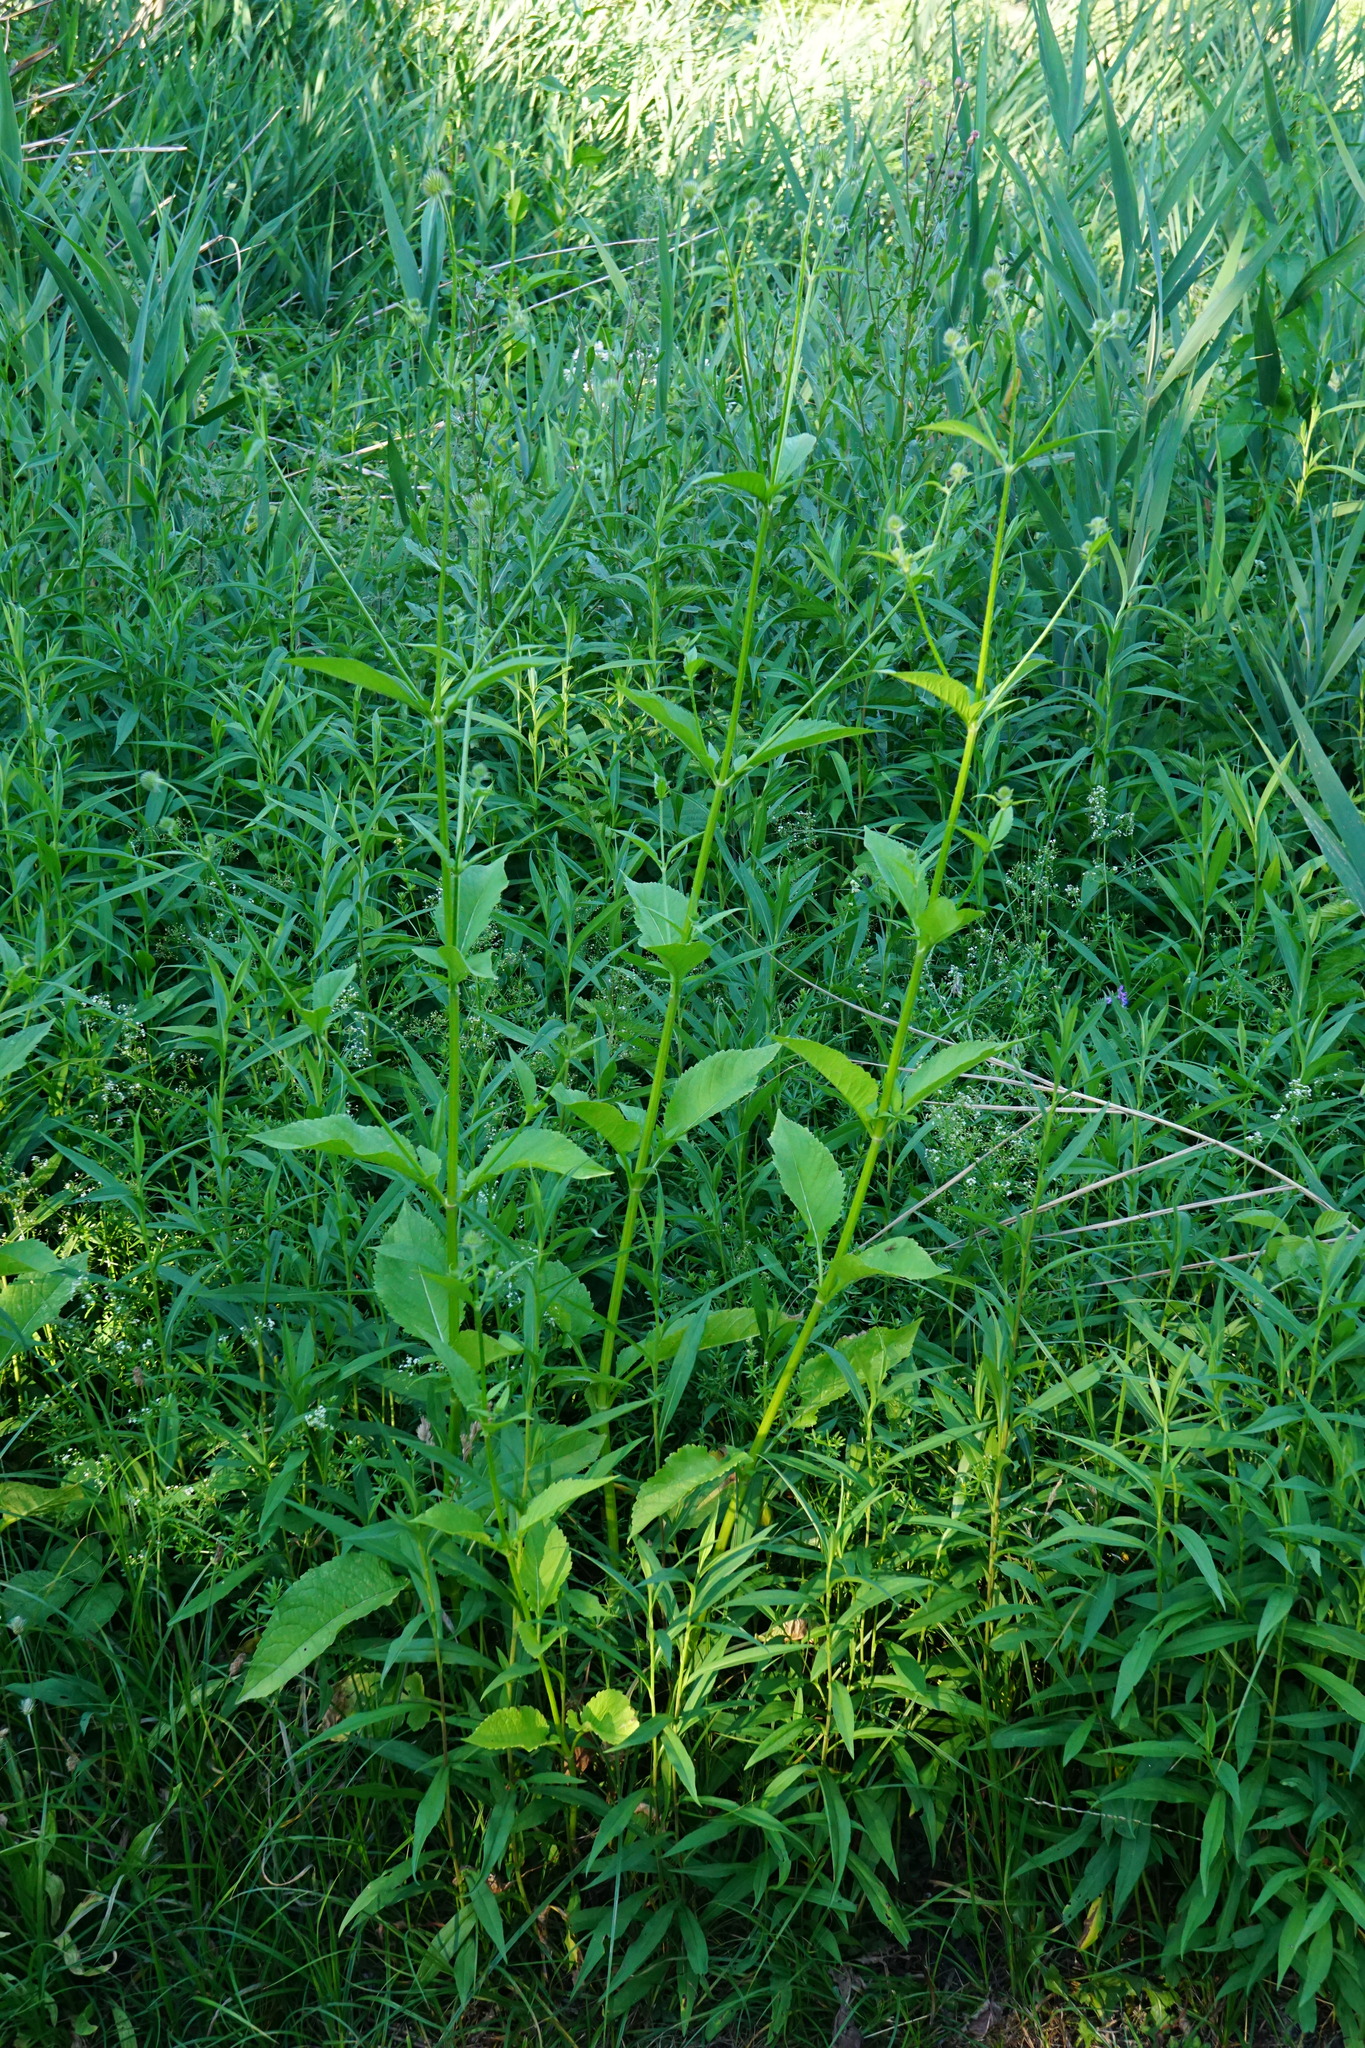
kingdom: Plantae
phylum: Tracheophyta
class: Magnoliopsida
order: Dipsacales
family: Caprifoliaceae
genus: Dipsacus
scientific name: Dipsacus pilosus
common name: Small teasel
